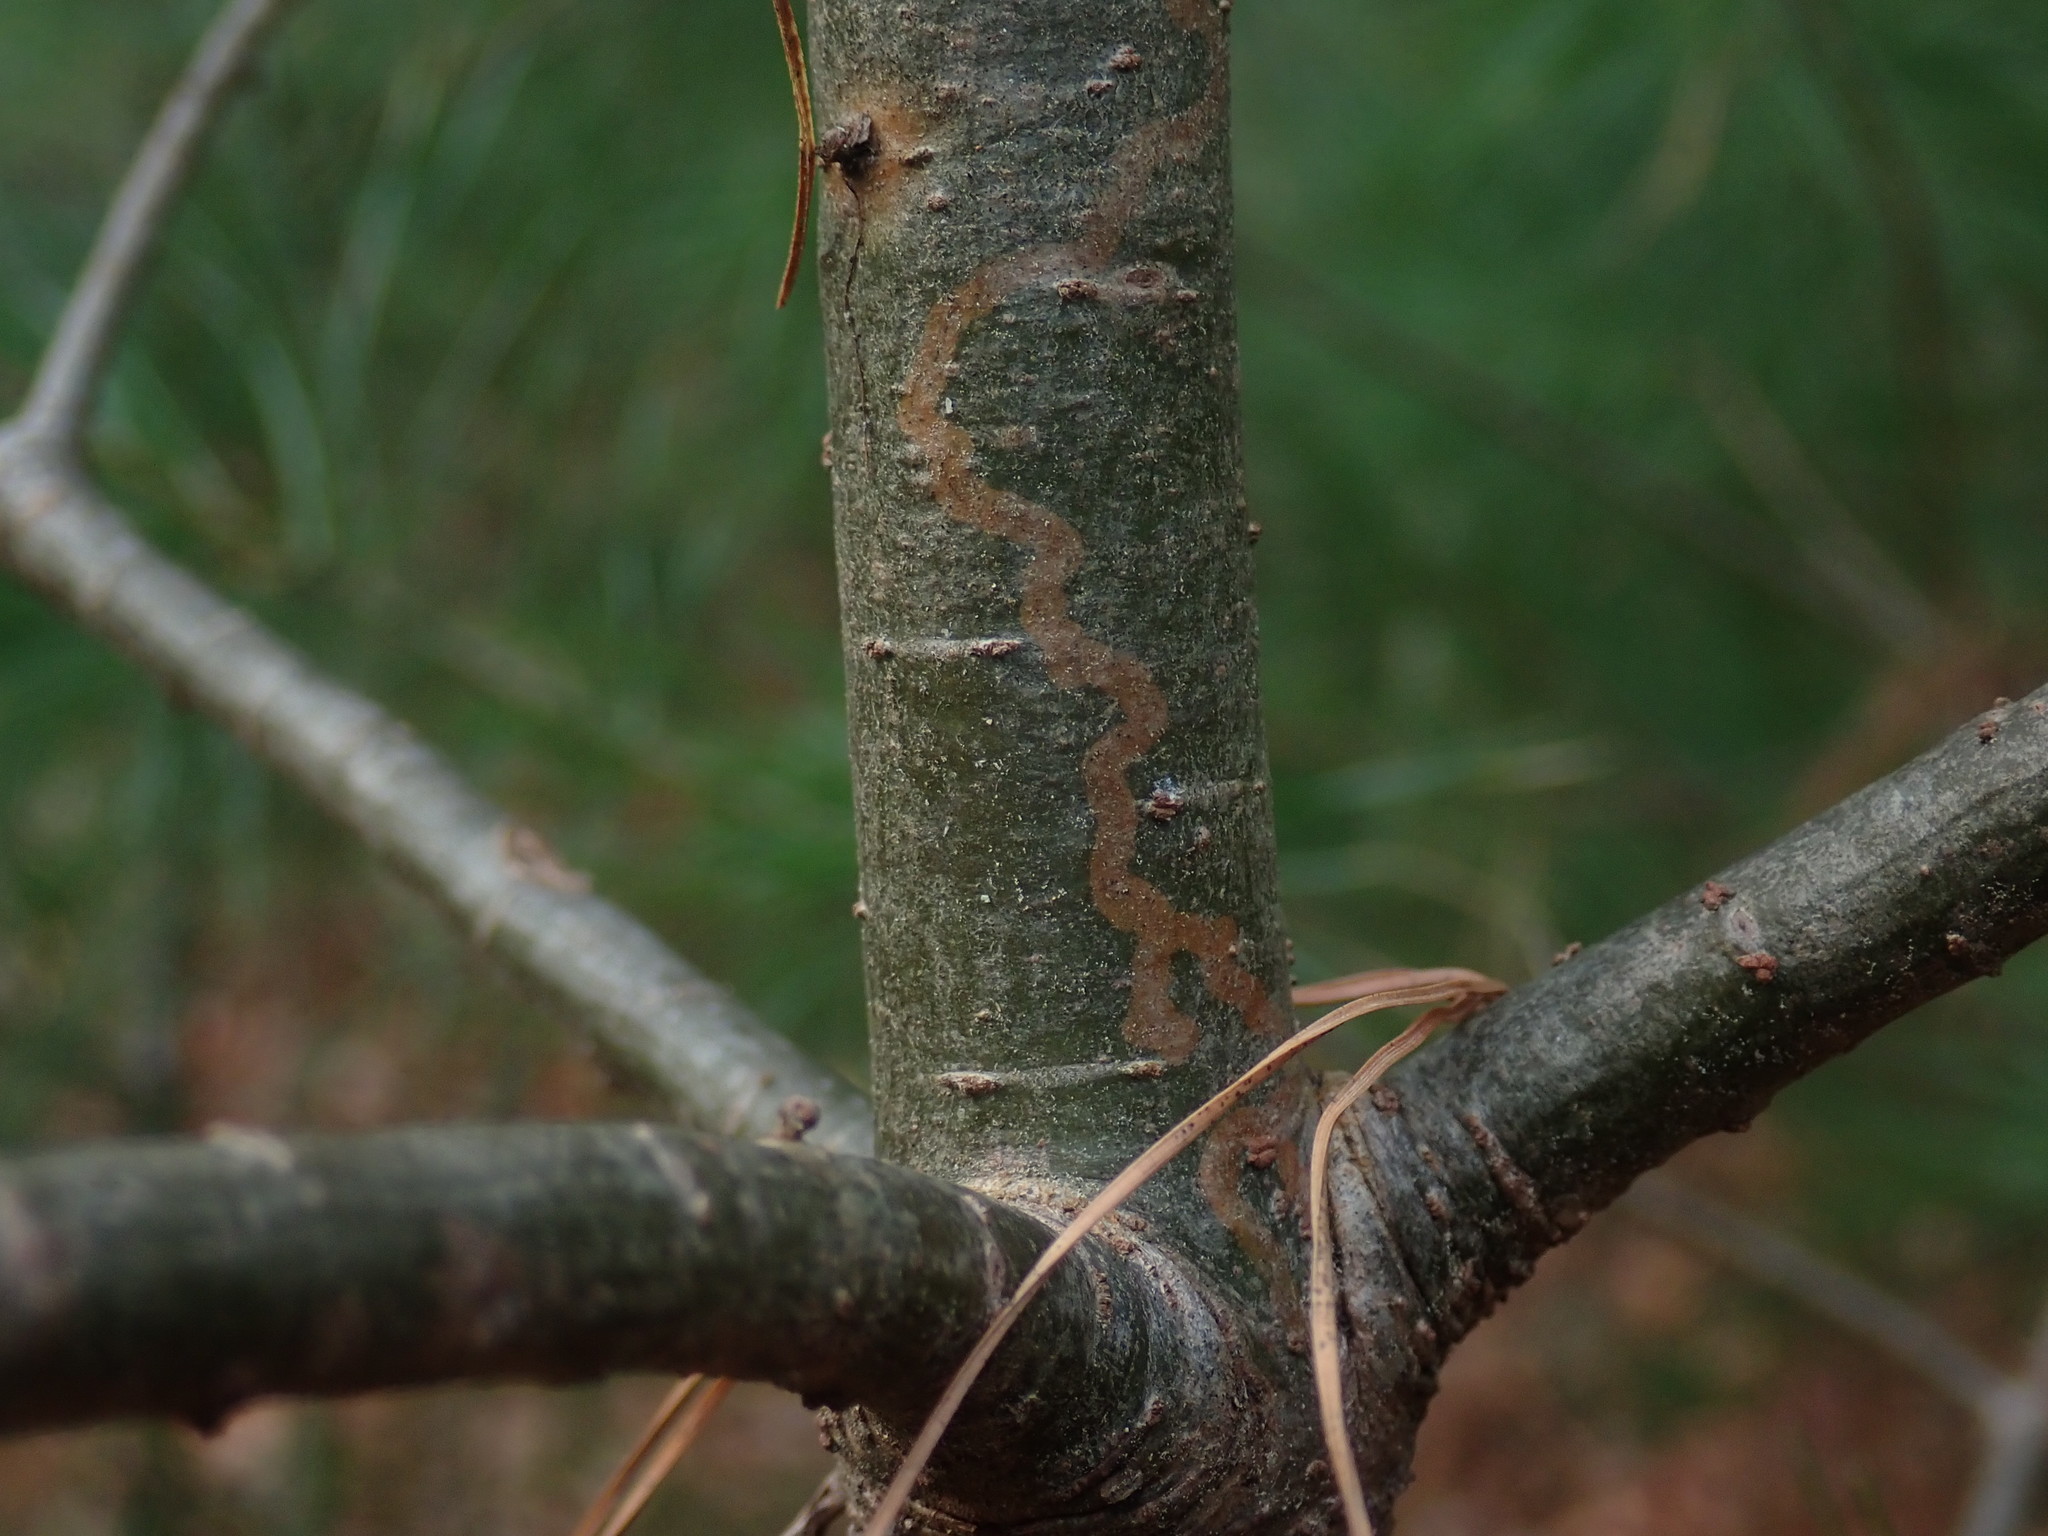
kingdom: Animalia
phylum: Arthropoda
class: Insecta
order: Lepidoptera
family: Gracillariidae
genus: Marmara
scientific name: Marmara fasciella
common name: White pine barkminer moth
